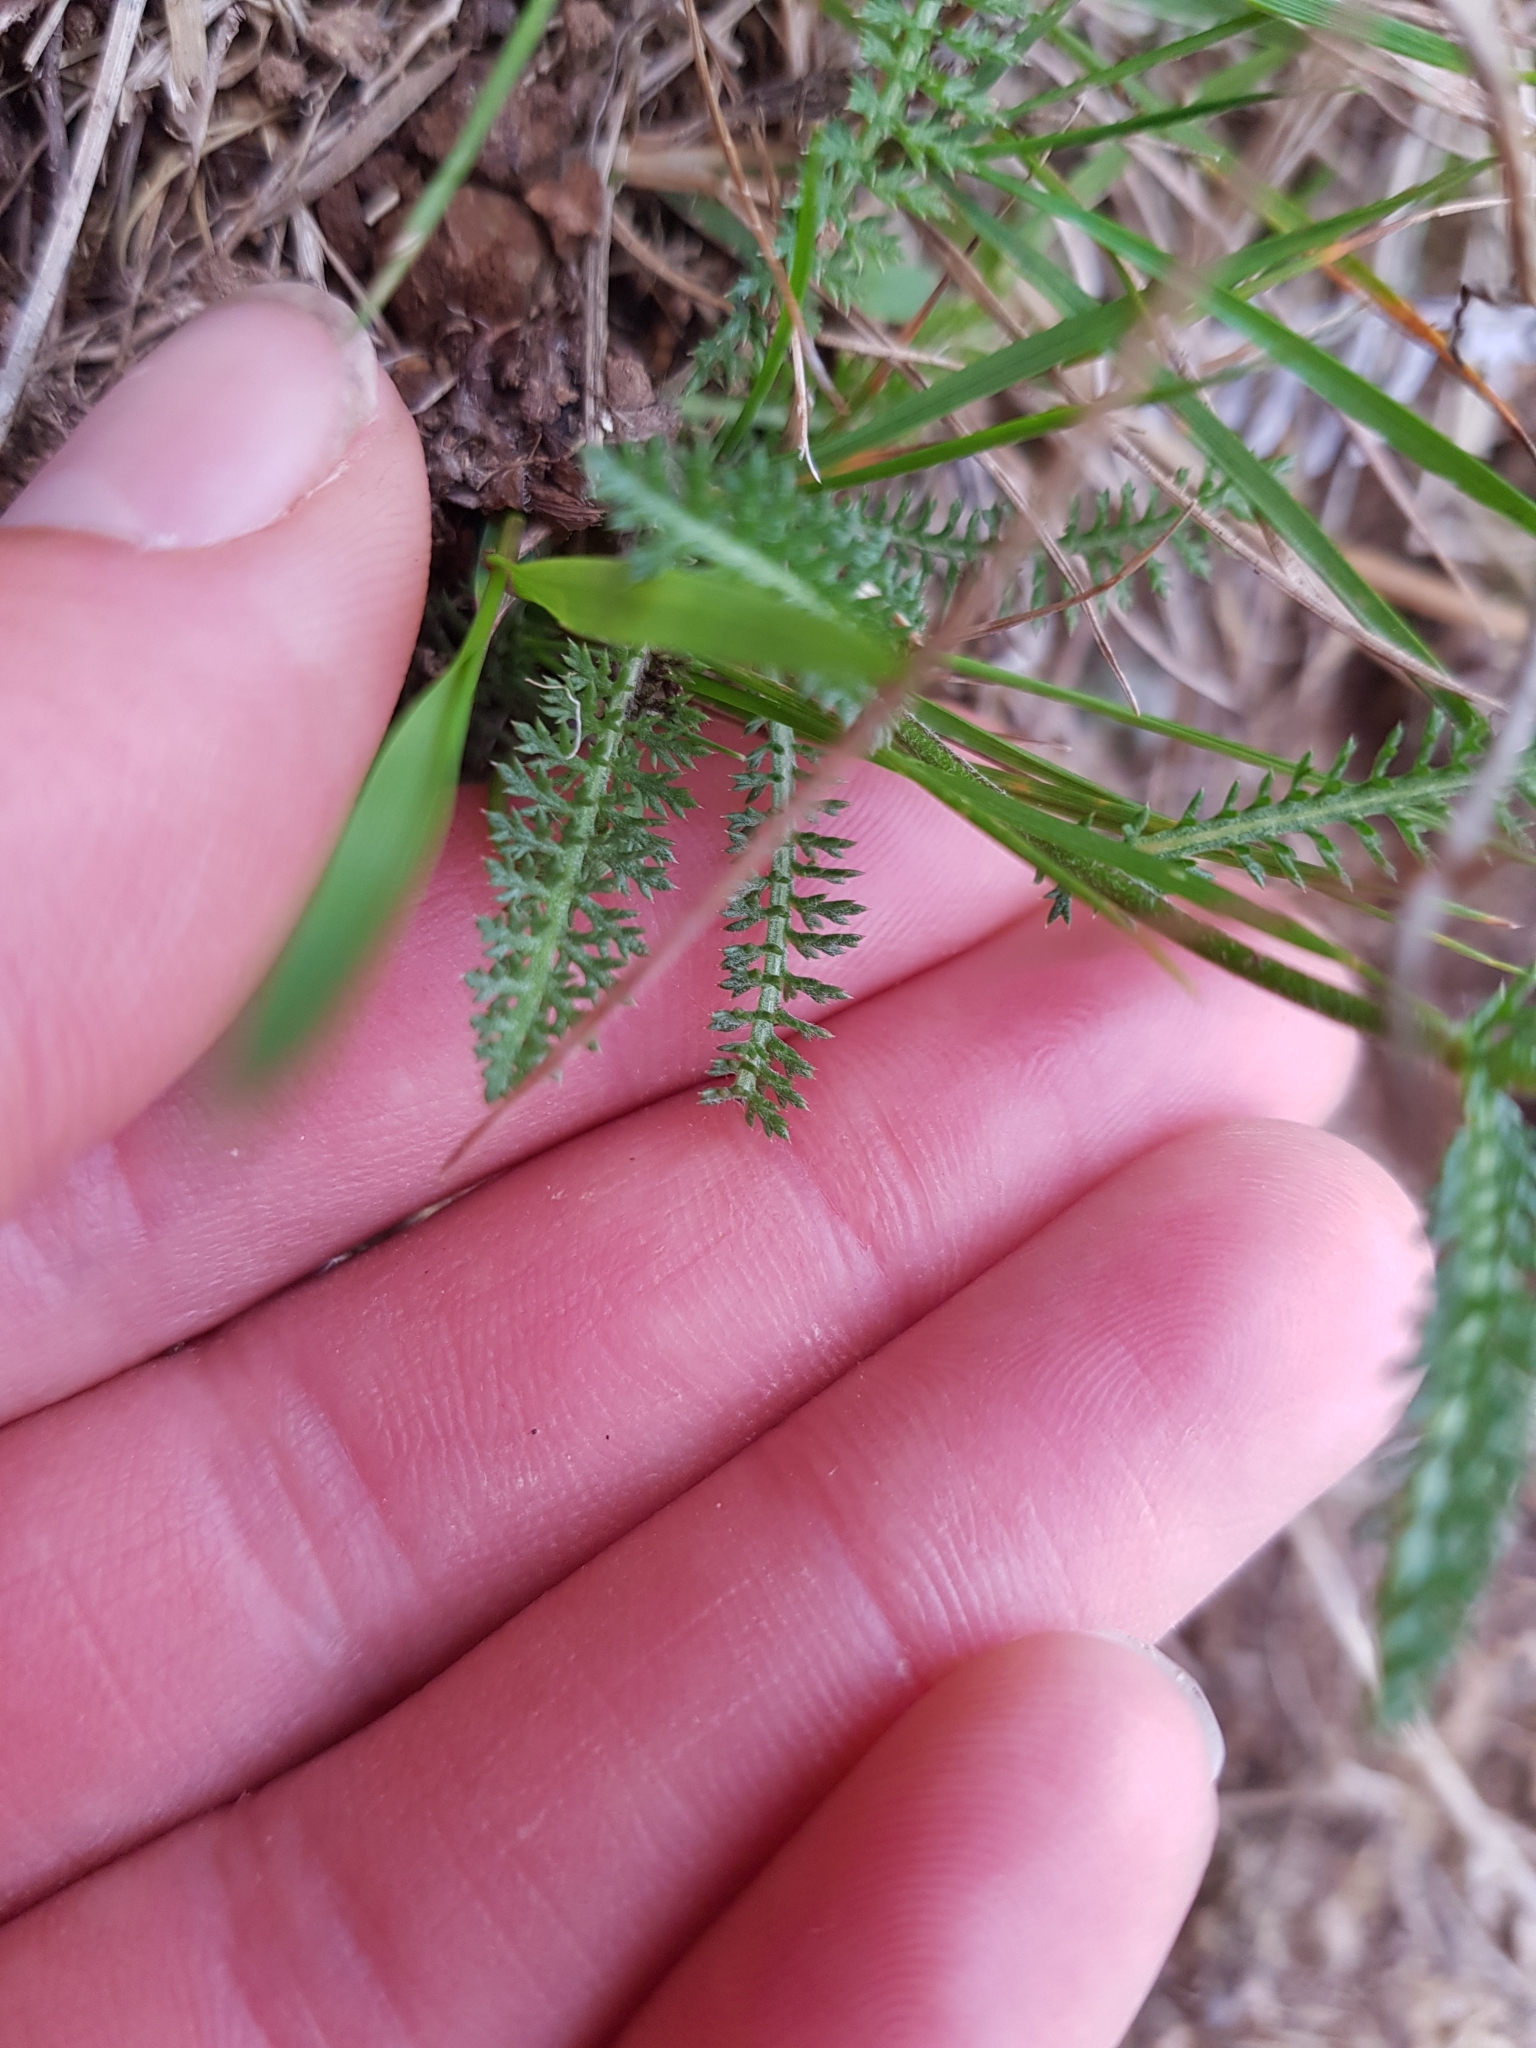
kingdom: Plantae
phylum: Tracheophyta
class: Magnoliopsida
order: Asterales
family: Asteraceae
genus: Achillea
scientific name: Achillea millefolium
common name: Yarrow
